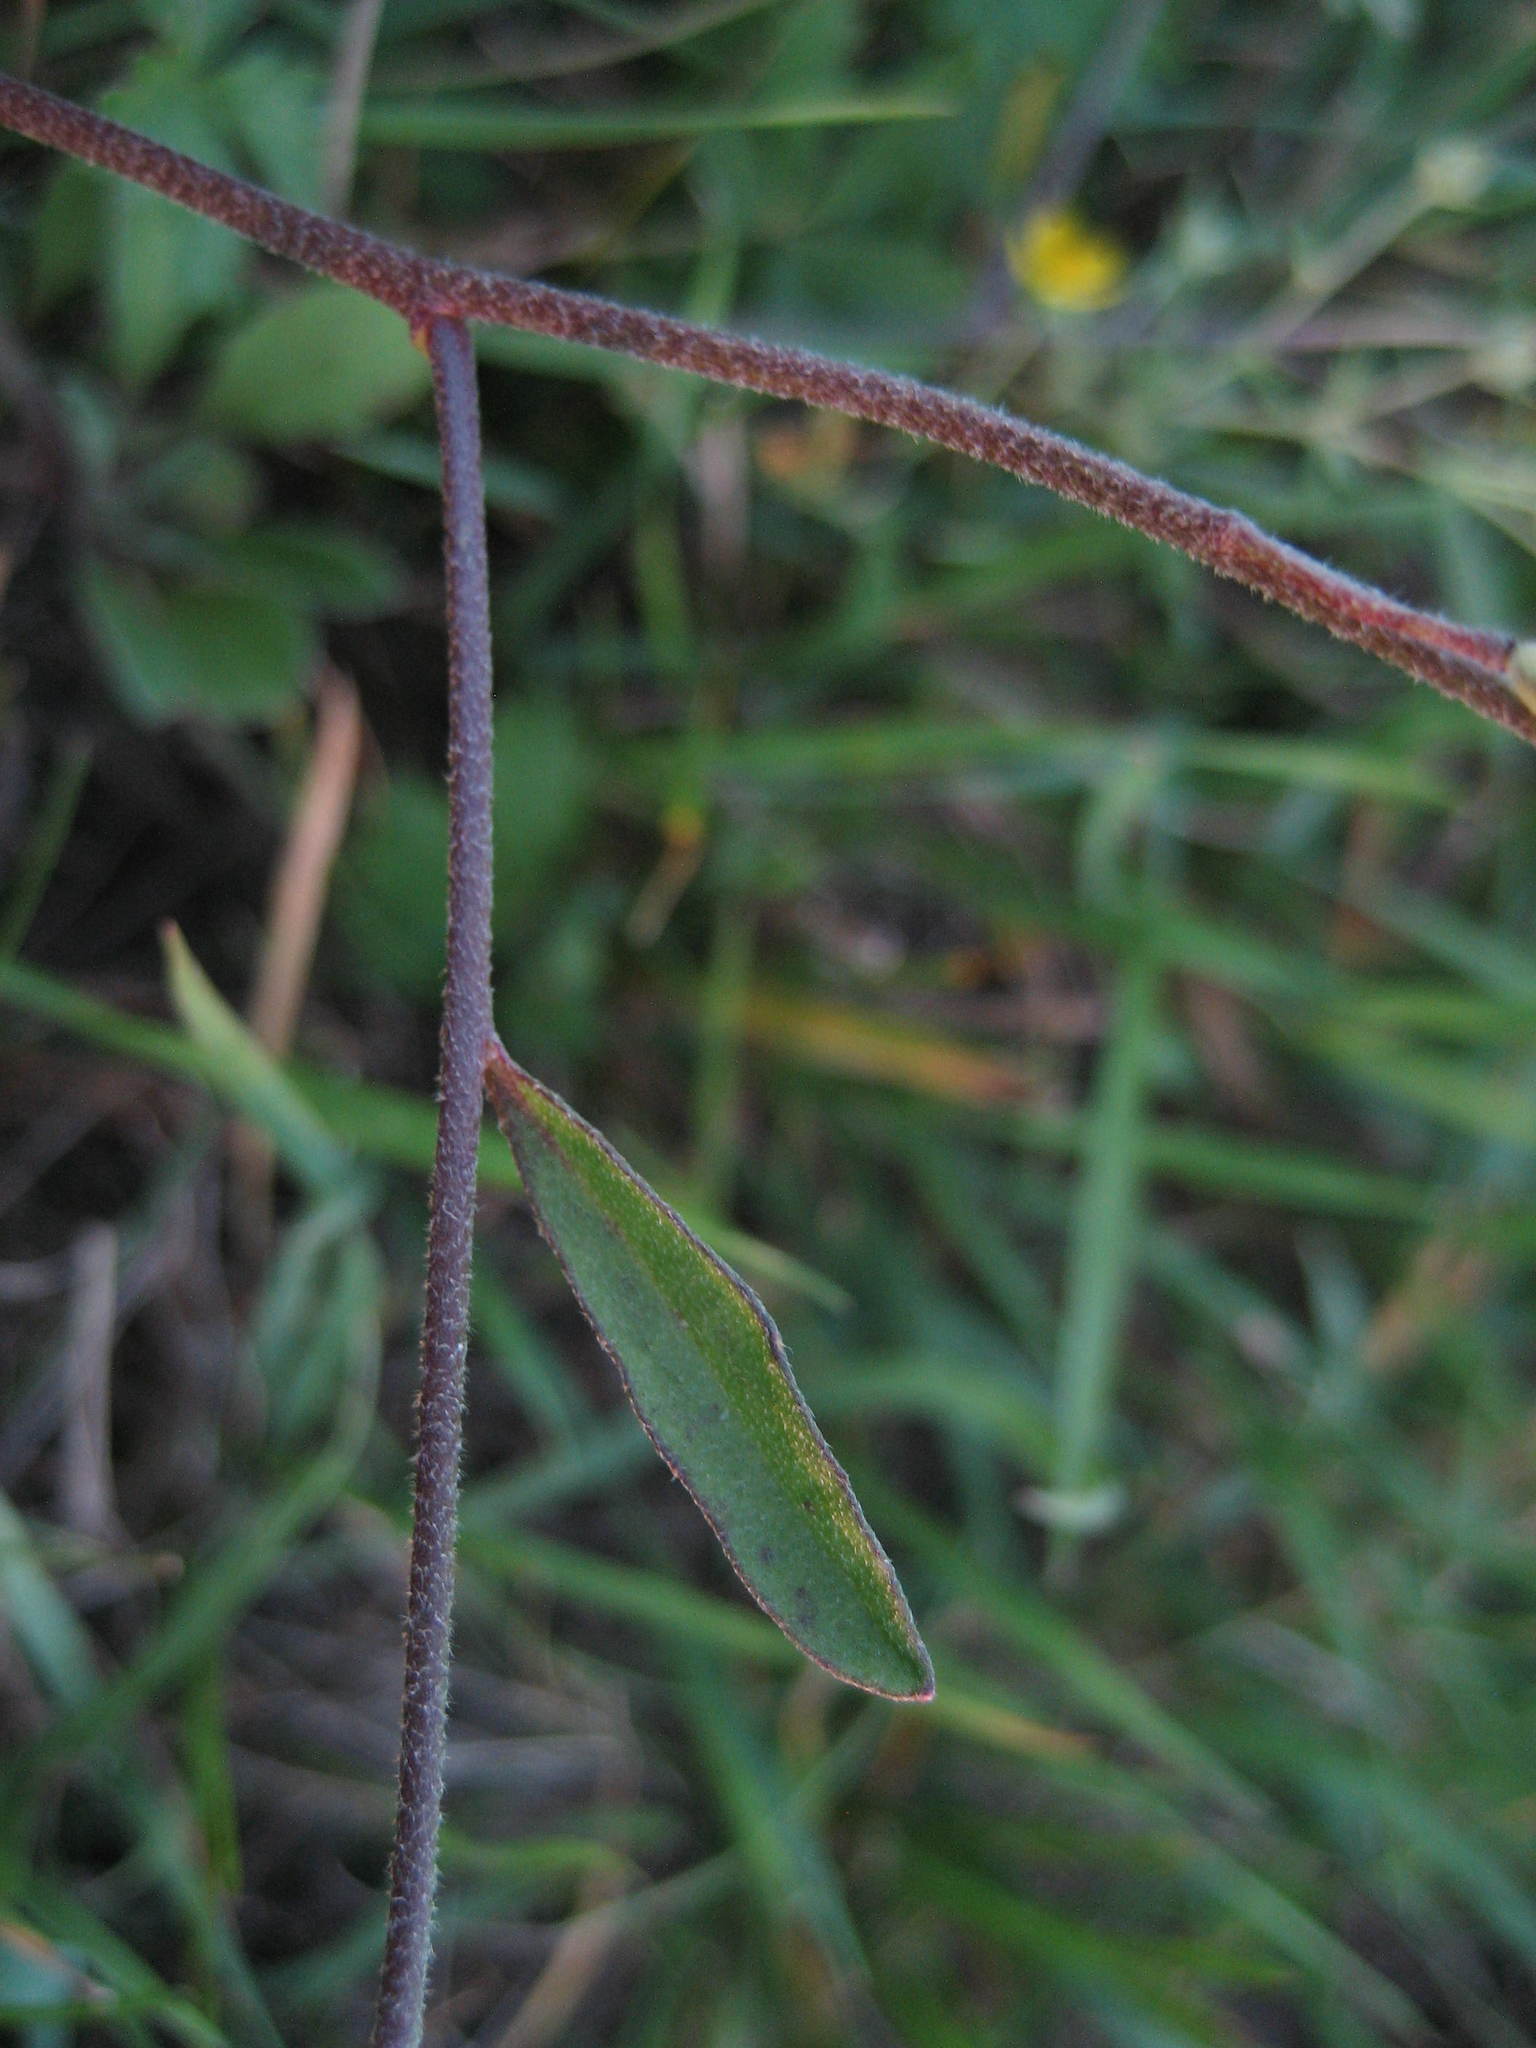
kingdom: Plantae
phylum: Tracheophyta
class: Magnoliopsida
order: Brassicales
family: Brassicaceae
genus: Berteroa
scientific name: Berteroa incana
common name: Hoary alison
